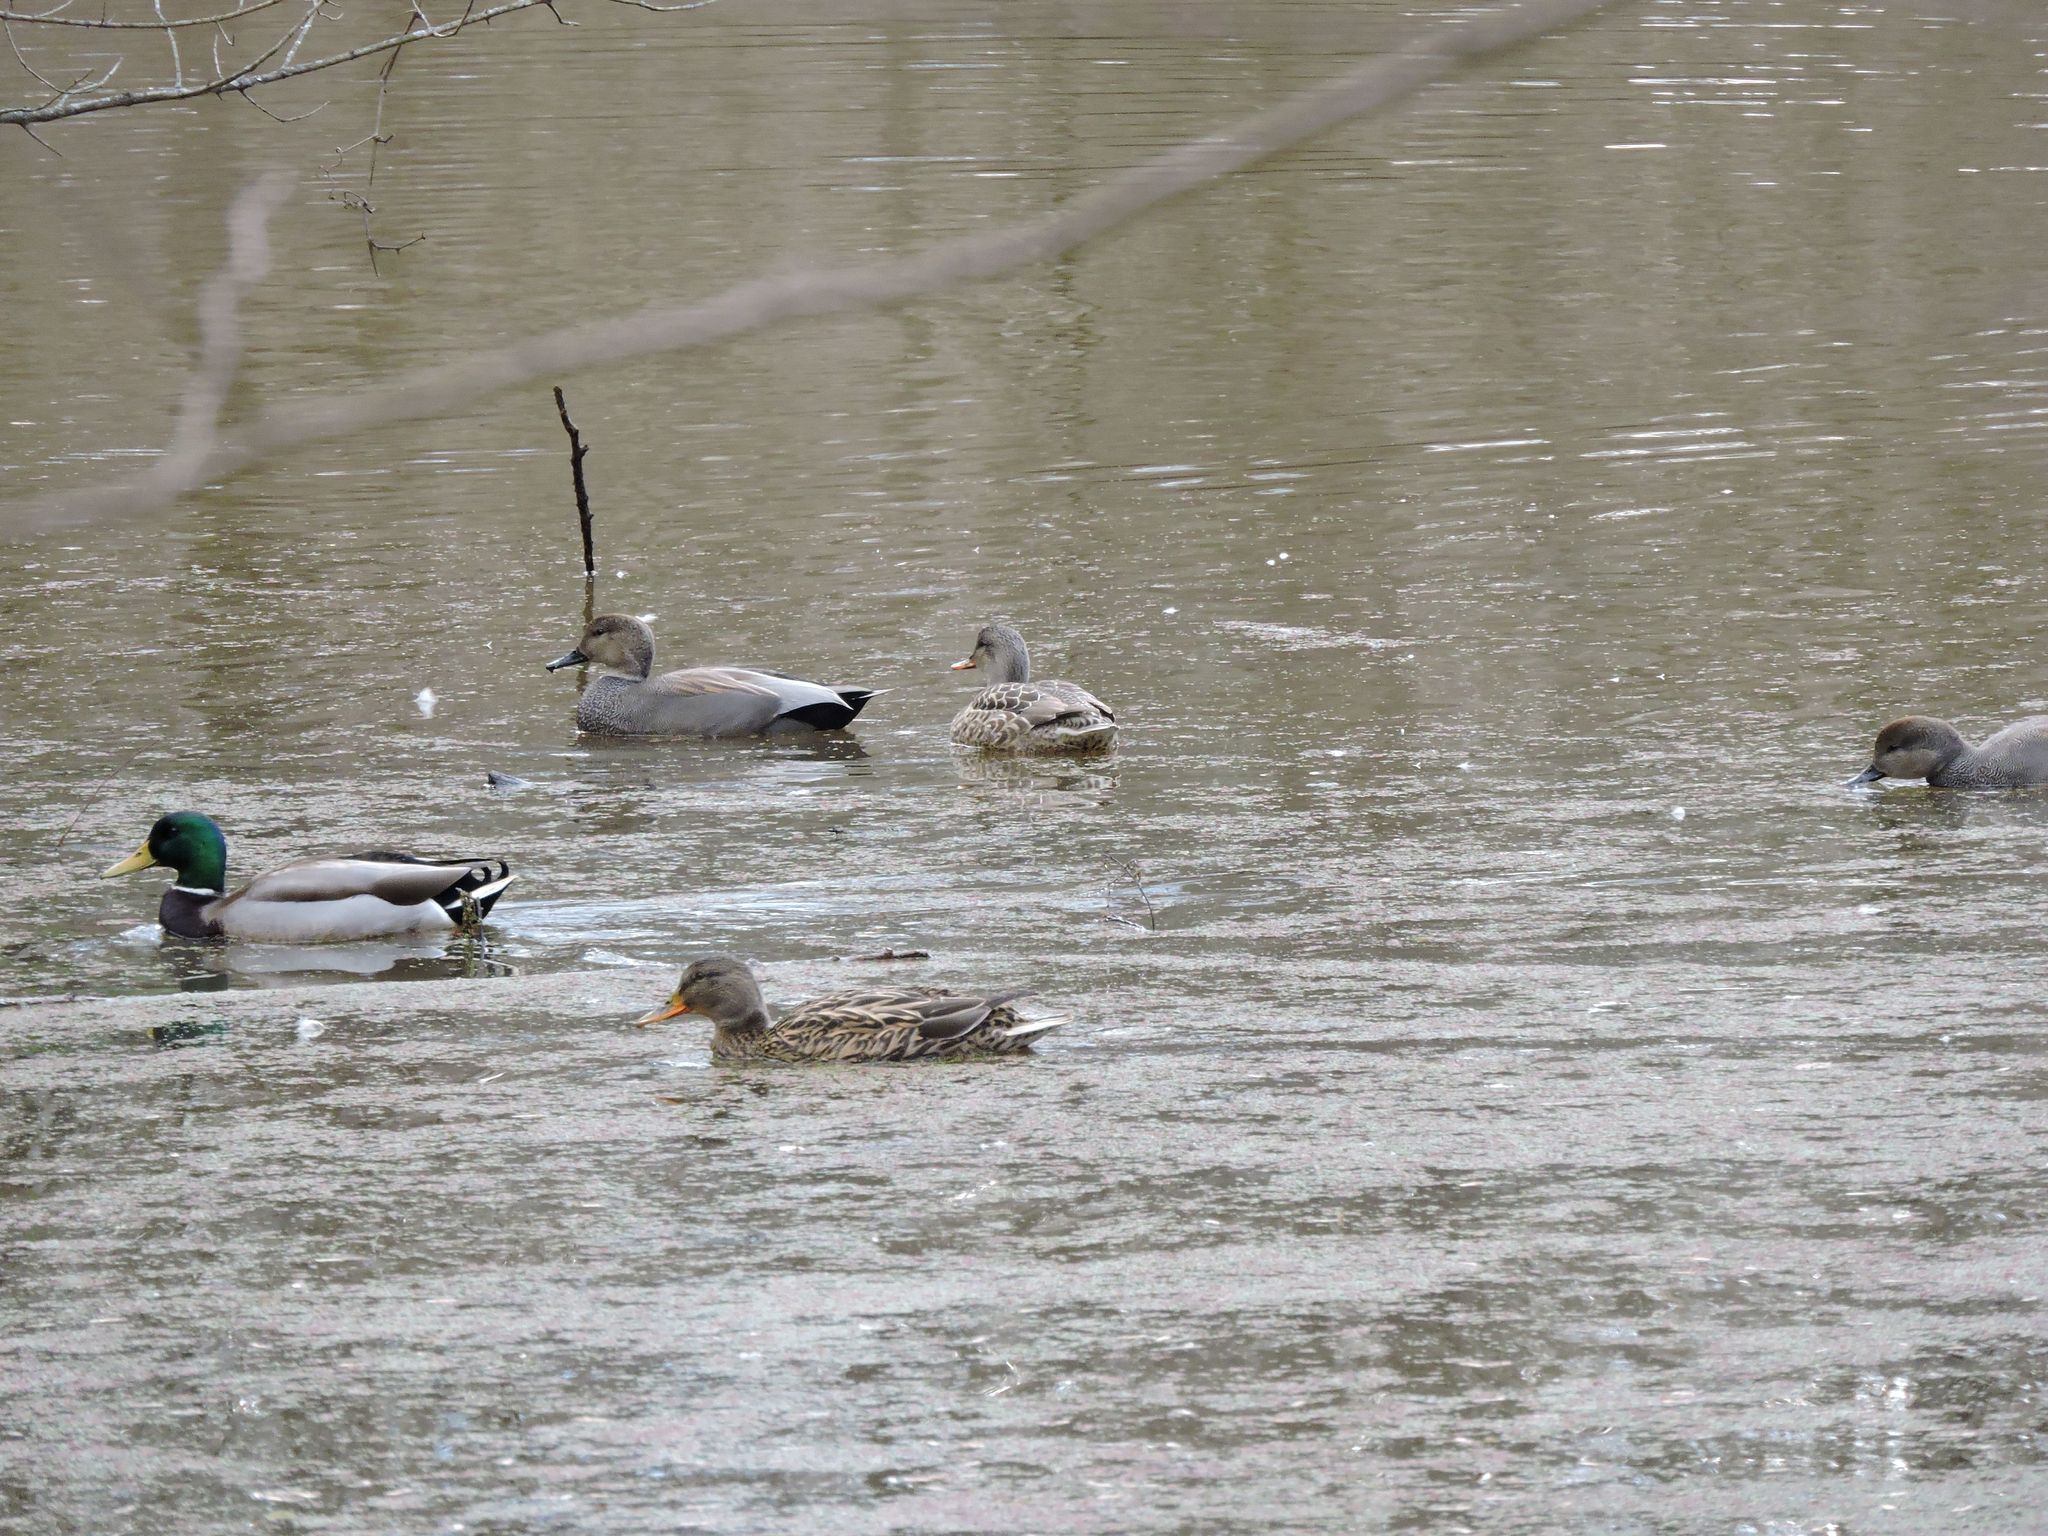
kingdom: Animalia
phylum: Chordata
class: Aves
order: Anseriformes
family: Anatidae
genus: Mareca
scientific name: Mareca strepera
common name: Gadwall
